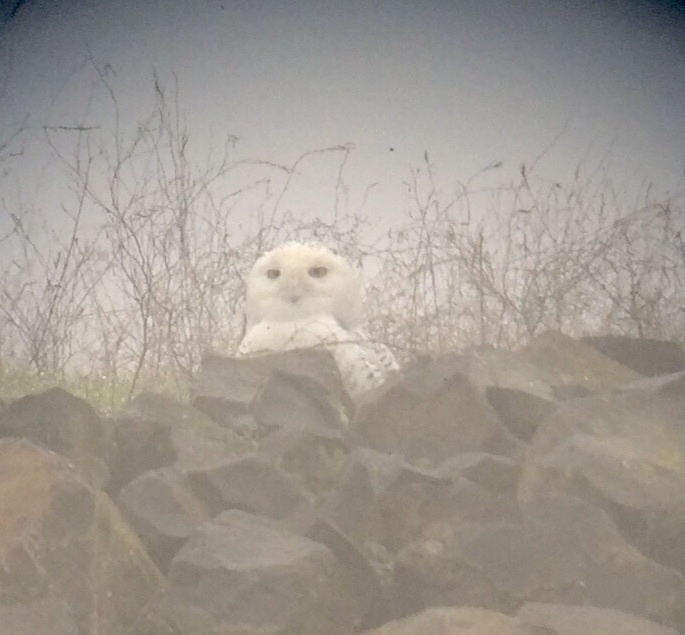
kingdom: Animalia
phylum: Chordata
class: Aves
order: Strigiformes
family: Strigidae
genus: Bubo
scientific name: Bubo scandiacus
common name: Snowy owl
